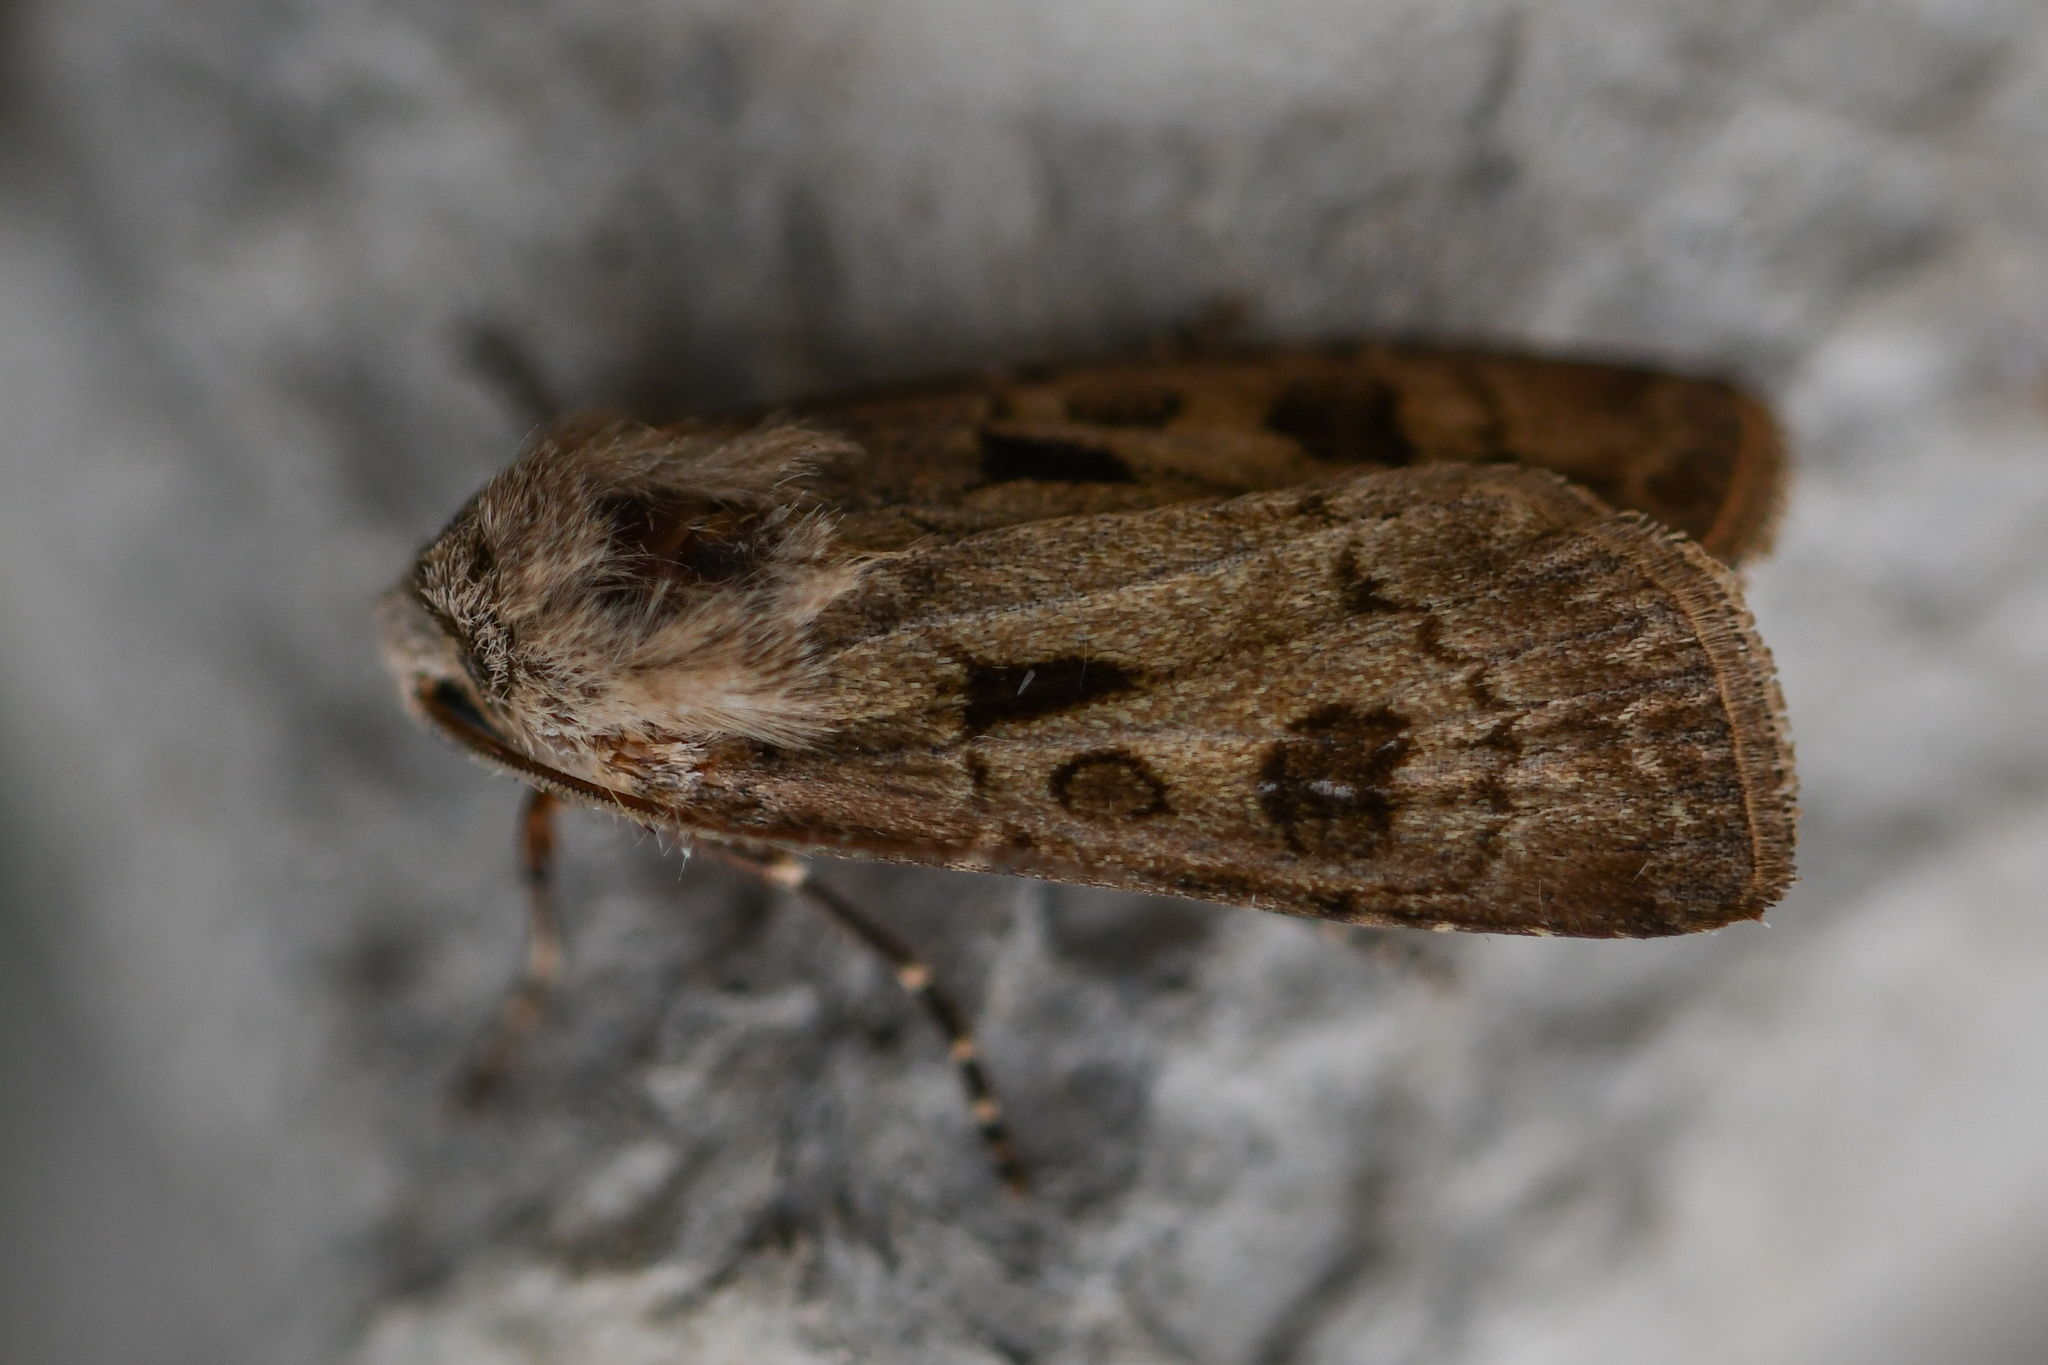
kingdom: Animalia
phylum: Arthropoda
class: Insecta
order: Lepidoptera
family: Noctuidae
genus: Agrotis
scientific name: Agrotis exclamationis
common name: Heart and dart
